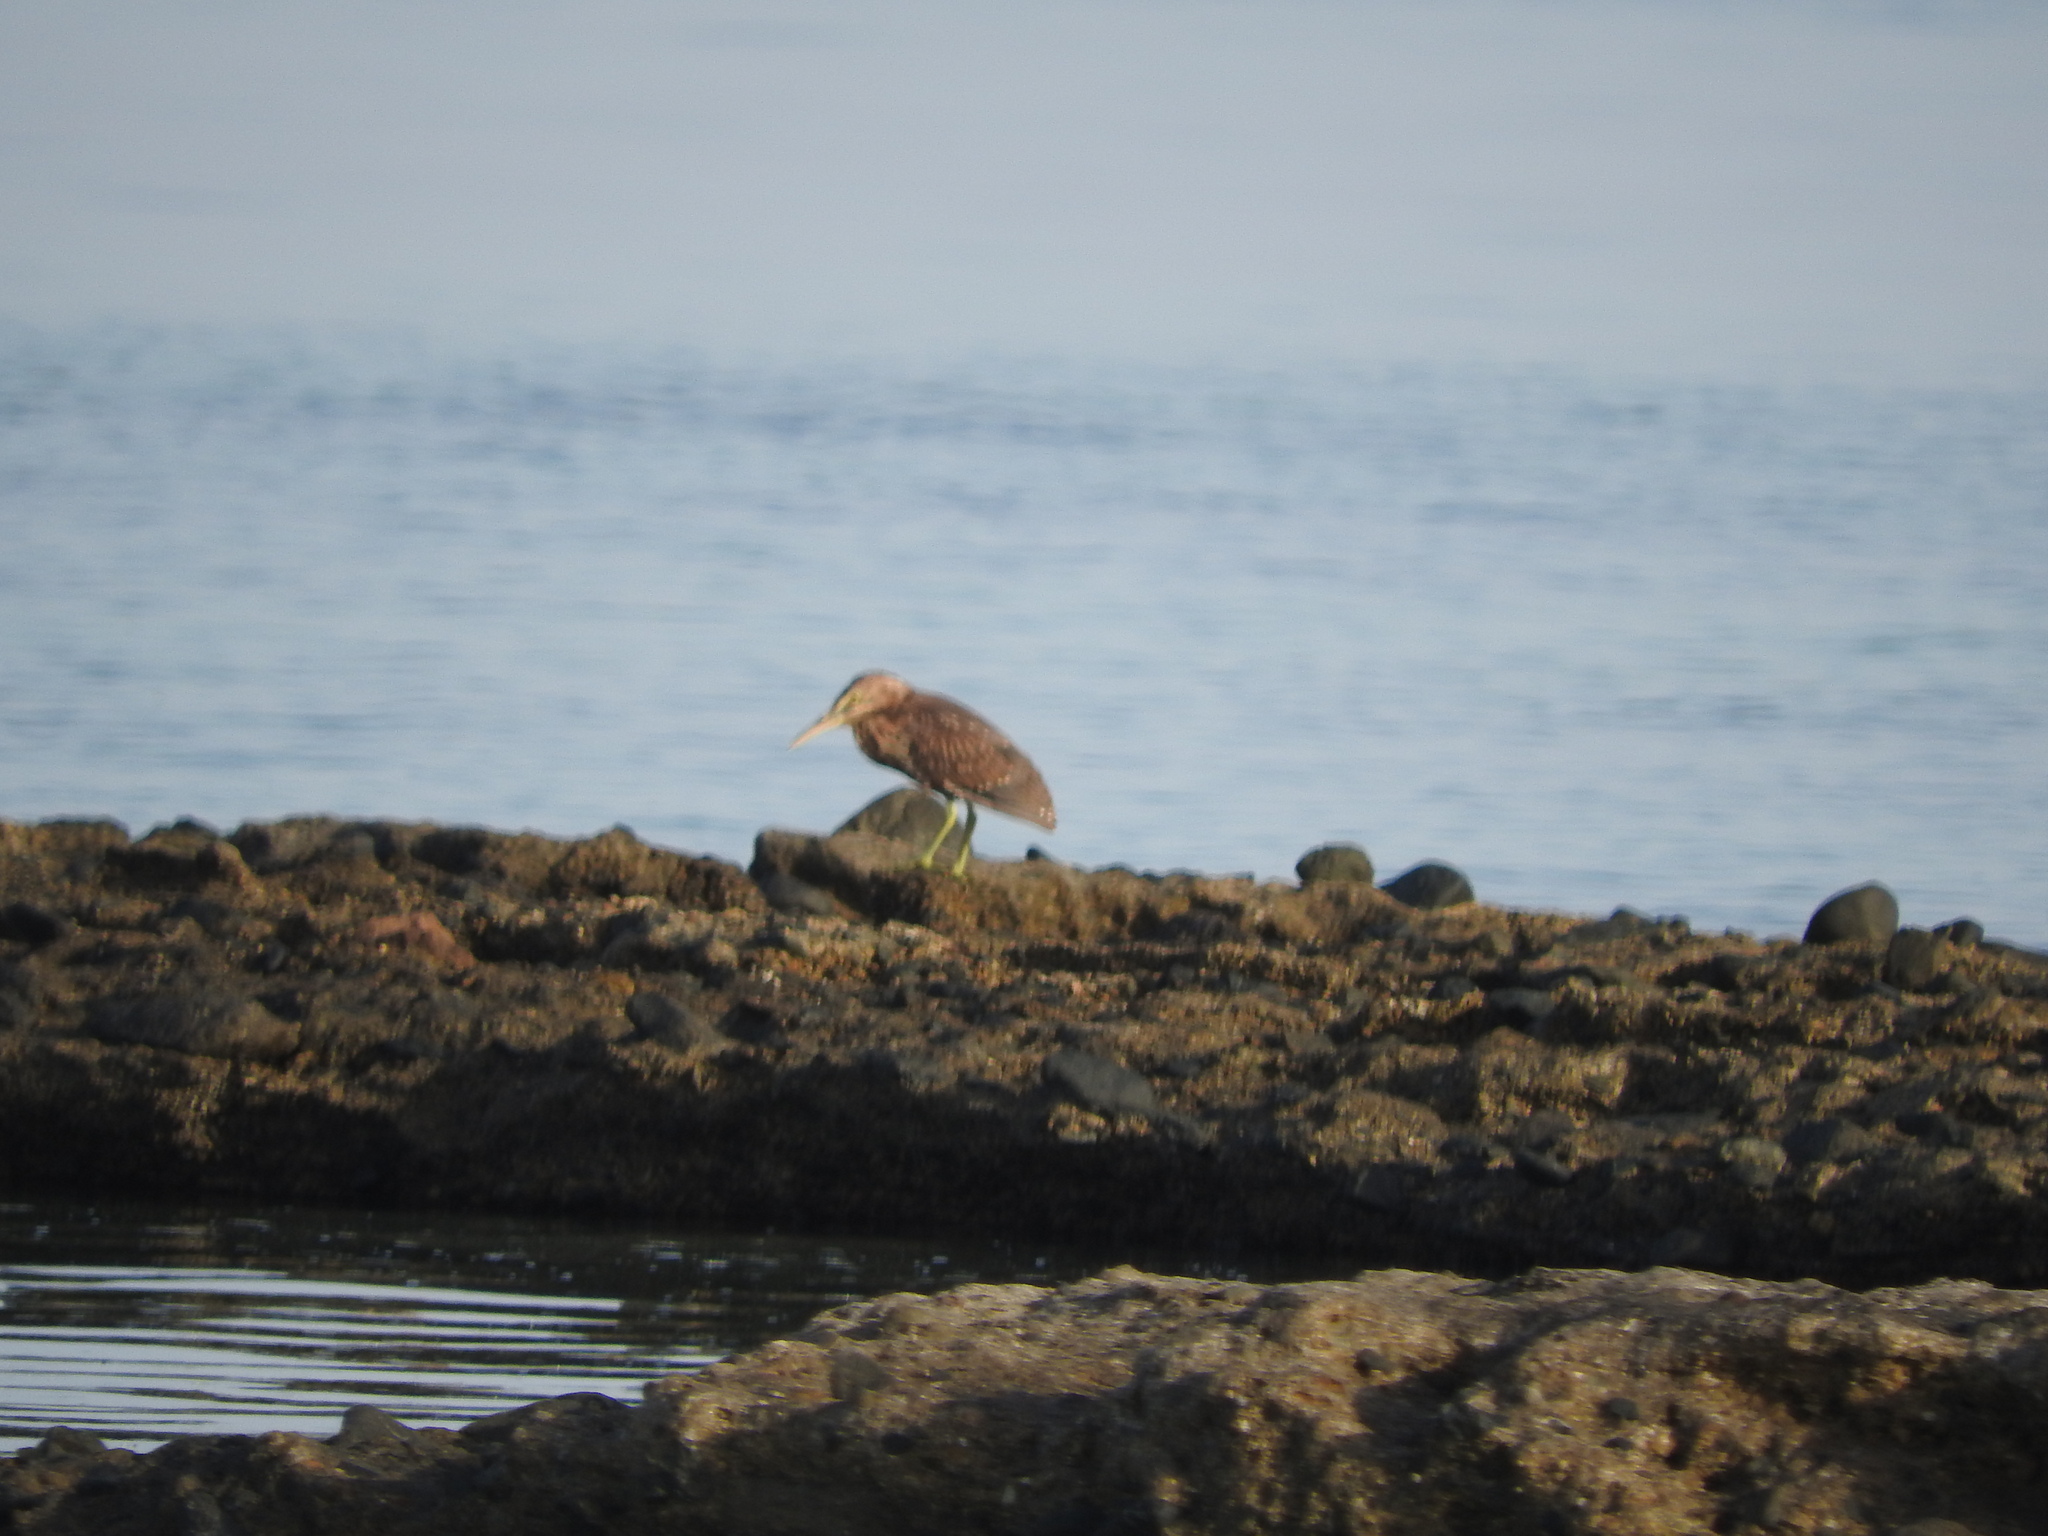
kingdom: Animalia
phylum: Chordata
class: Aves
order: Pelecaniformes
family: Ardeidae
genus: Butorides
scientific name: Butorides striata
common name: Striated heron
